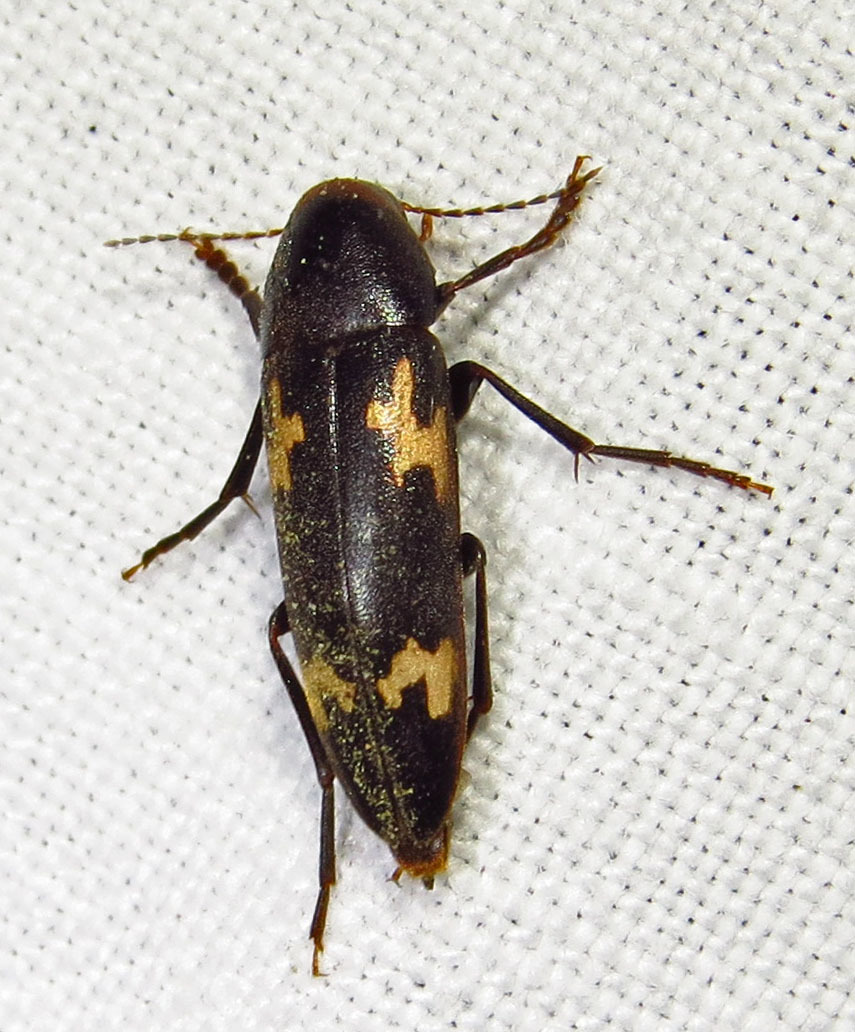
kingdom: Animalia
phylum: Arthropoda
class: Insecta
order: Coleoptera
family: Melandryidae
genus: Dircaea
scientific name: Dircaea liturata
